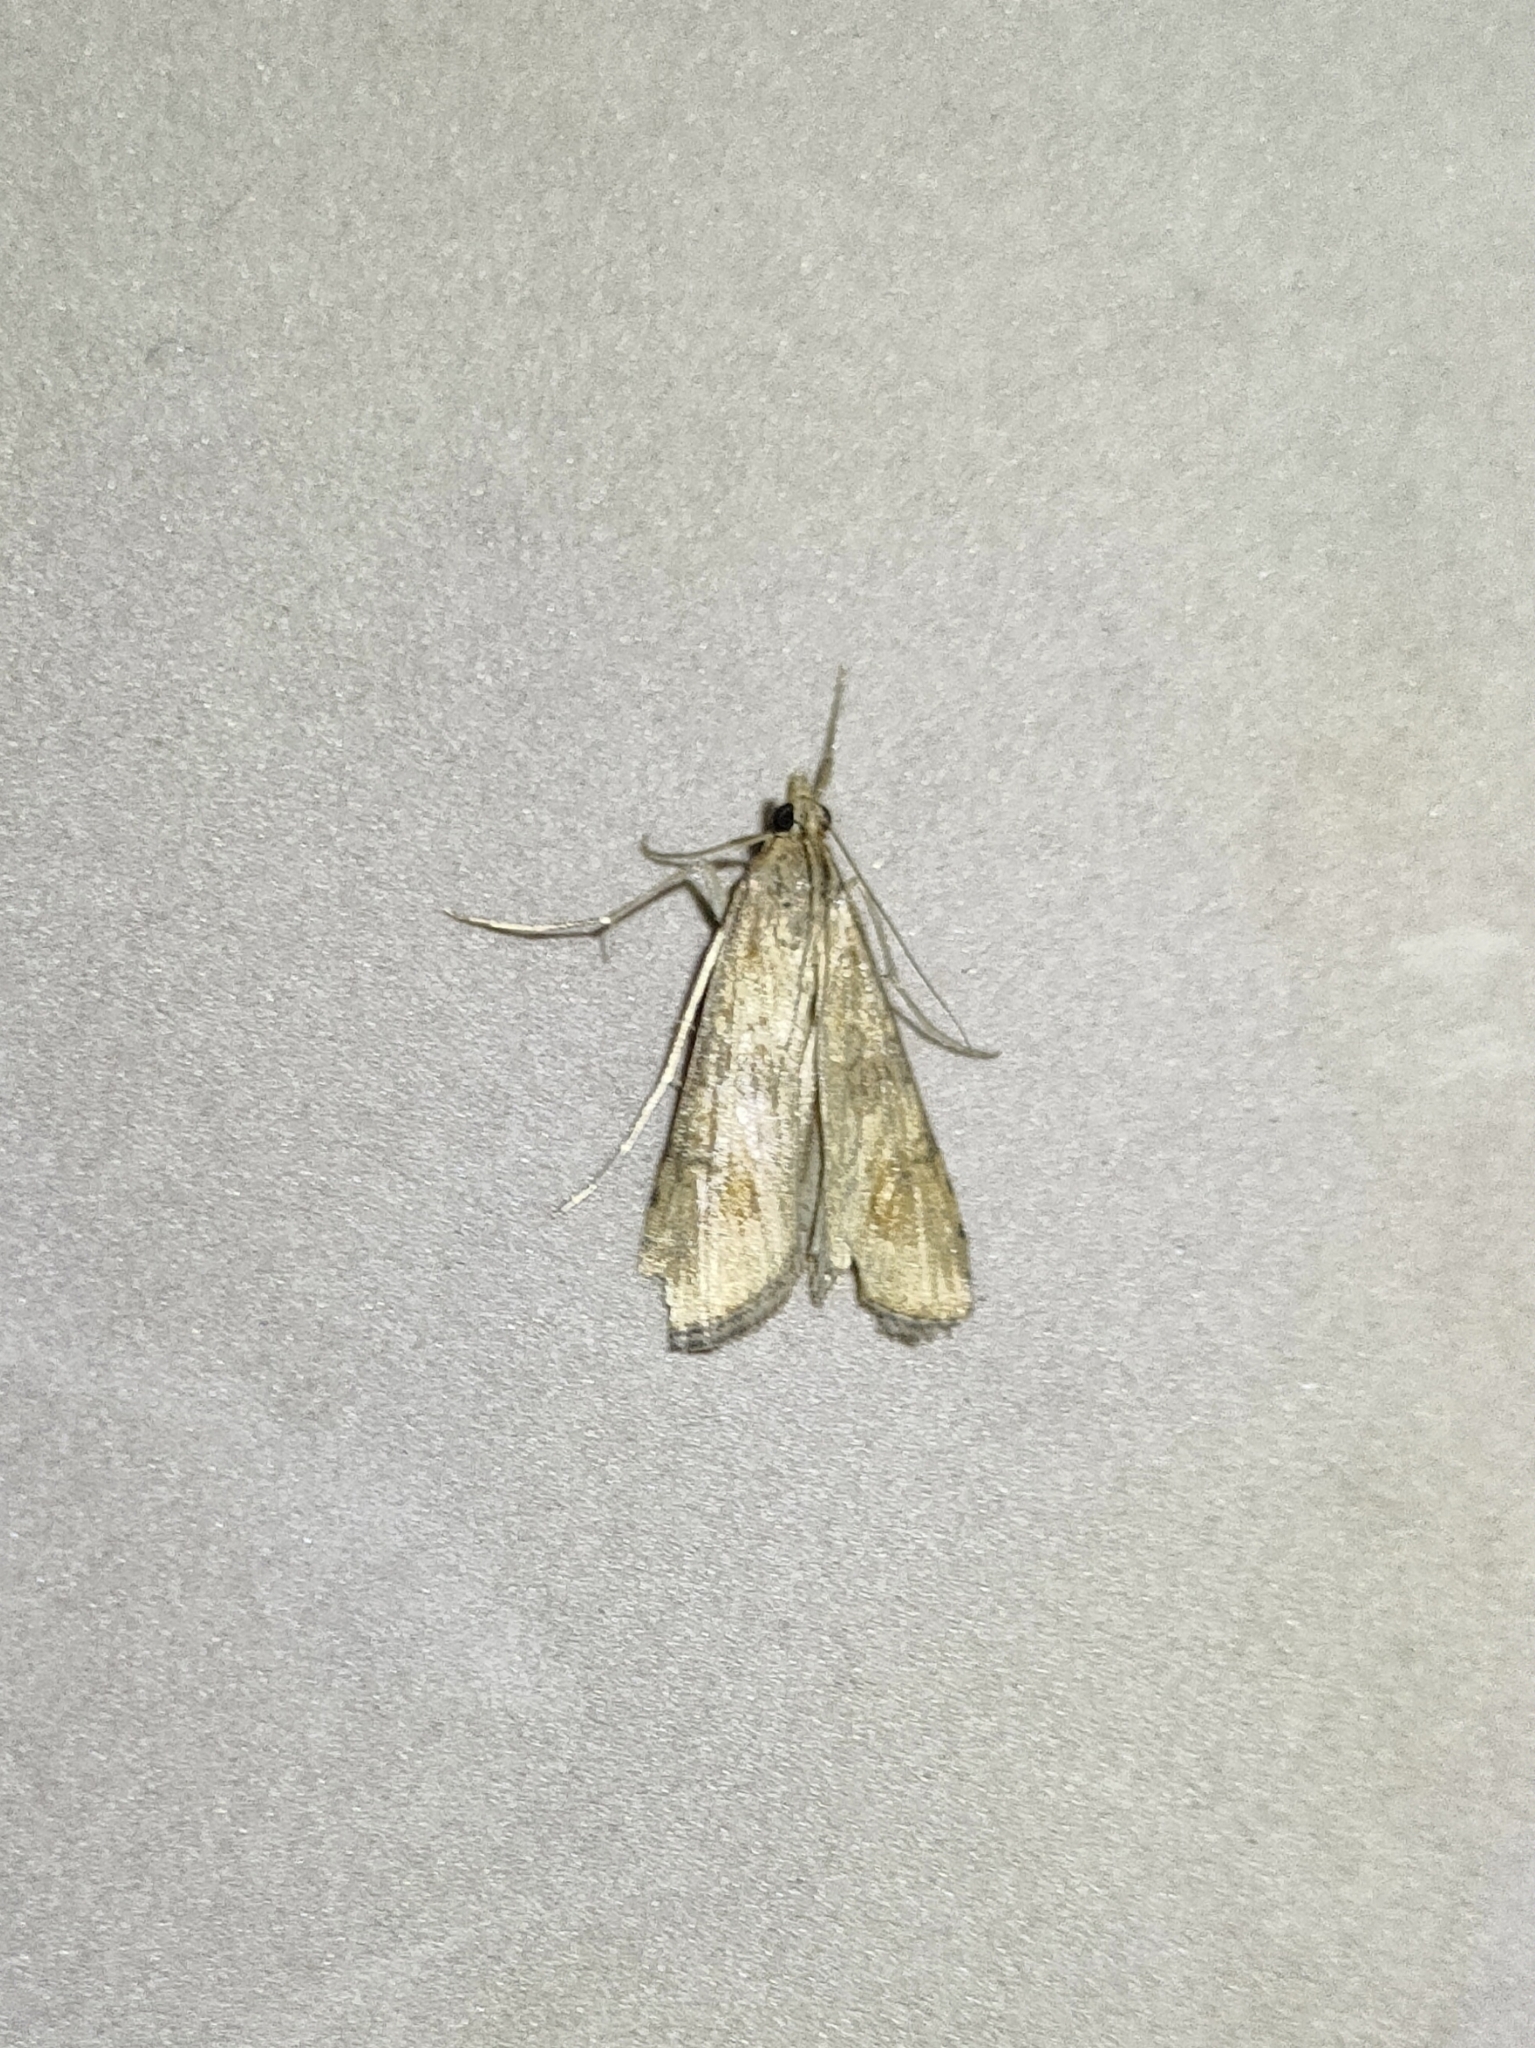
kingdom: Animalia
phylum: Arthropoda
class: Insecta
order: Lepidoptera
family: Crambidae
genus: Nomophila
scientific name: Nomophila noctuella
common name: Rush veneer
